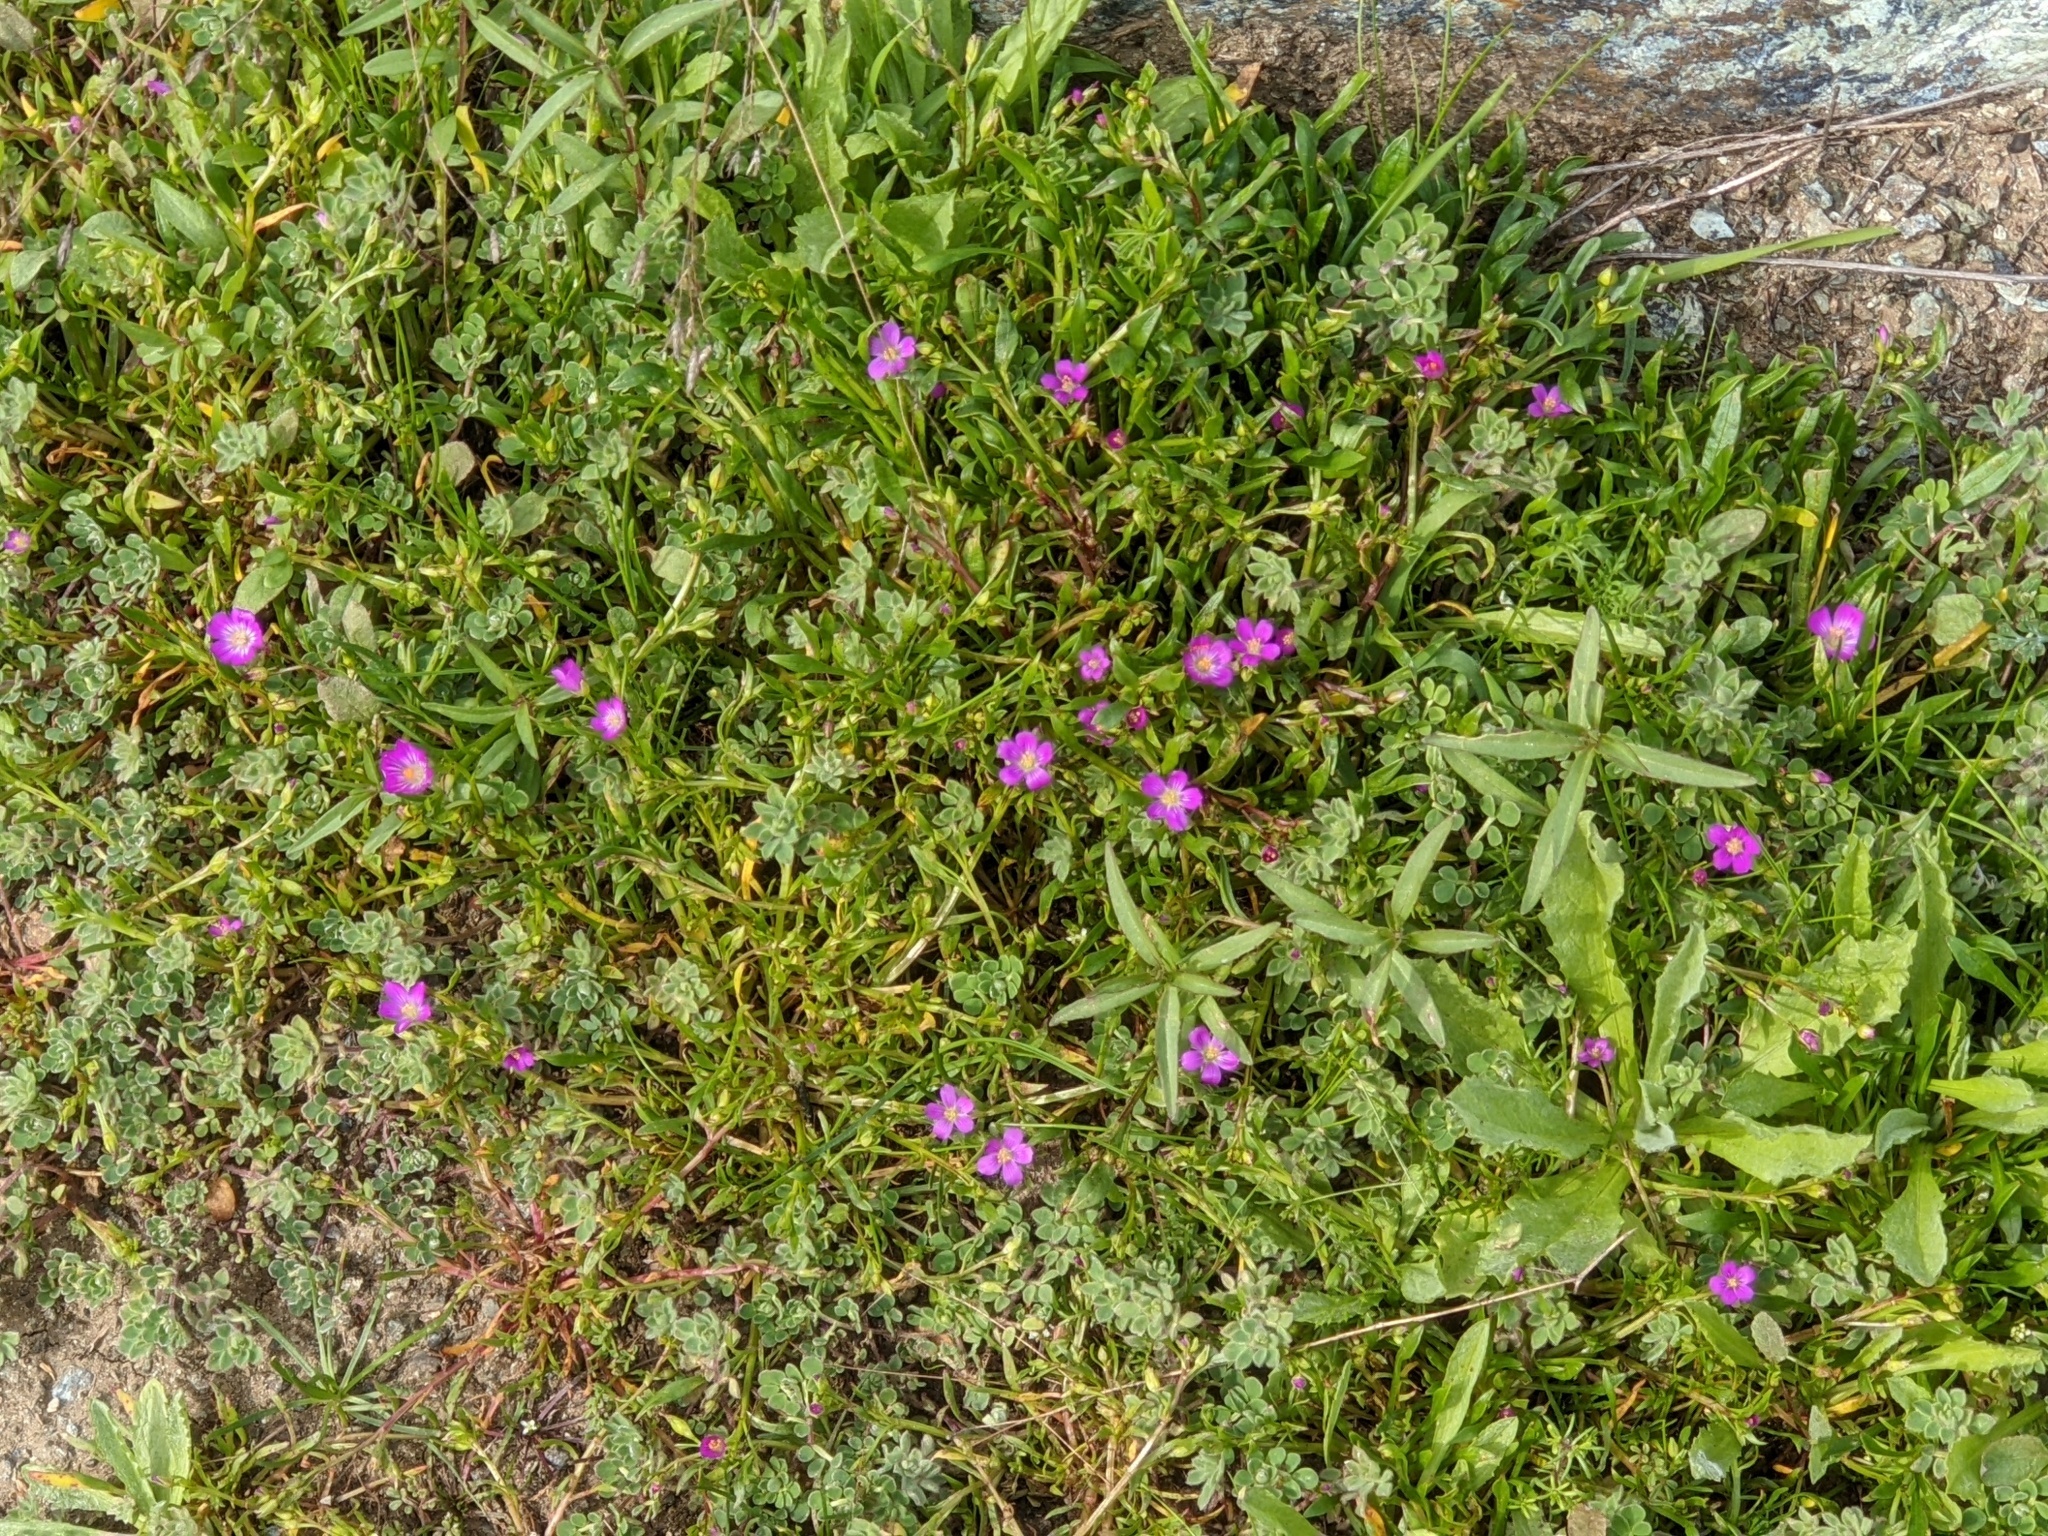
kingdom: Plantae
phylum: Tracheophyta
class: Magnoliopsida
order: Caryophyllales
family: Montiaceae
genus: Calandrinia
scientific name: Calandrinia menziesii
